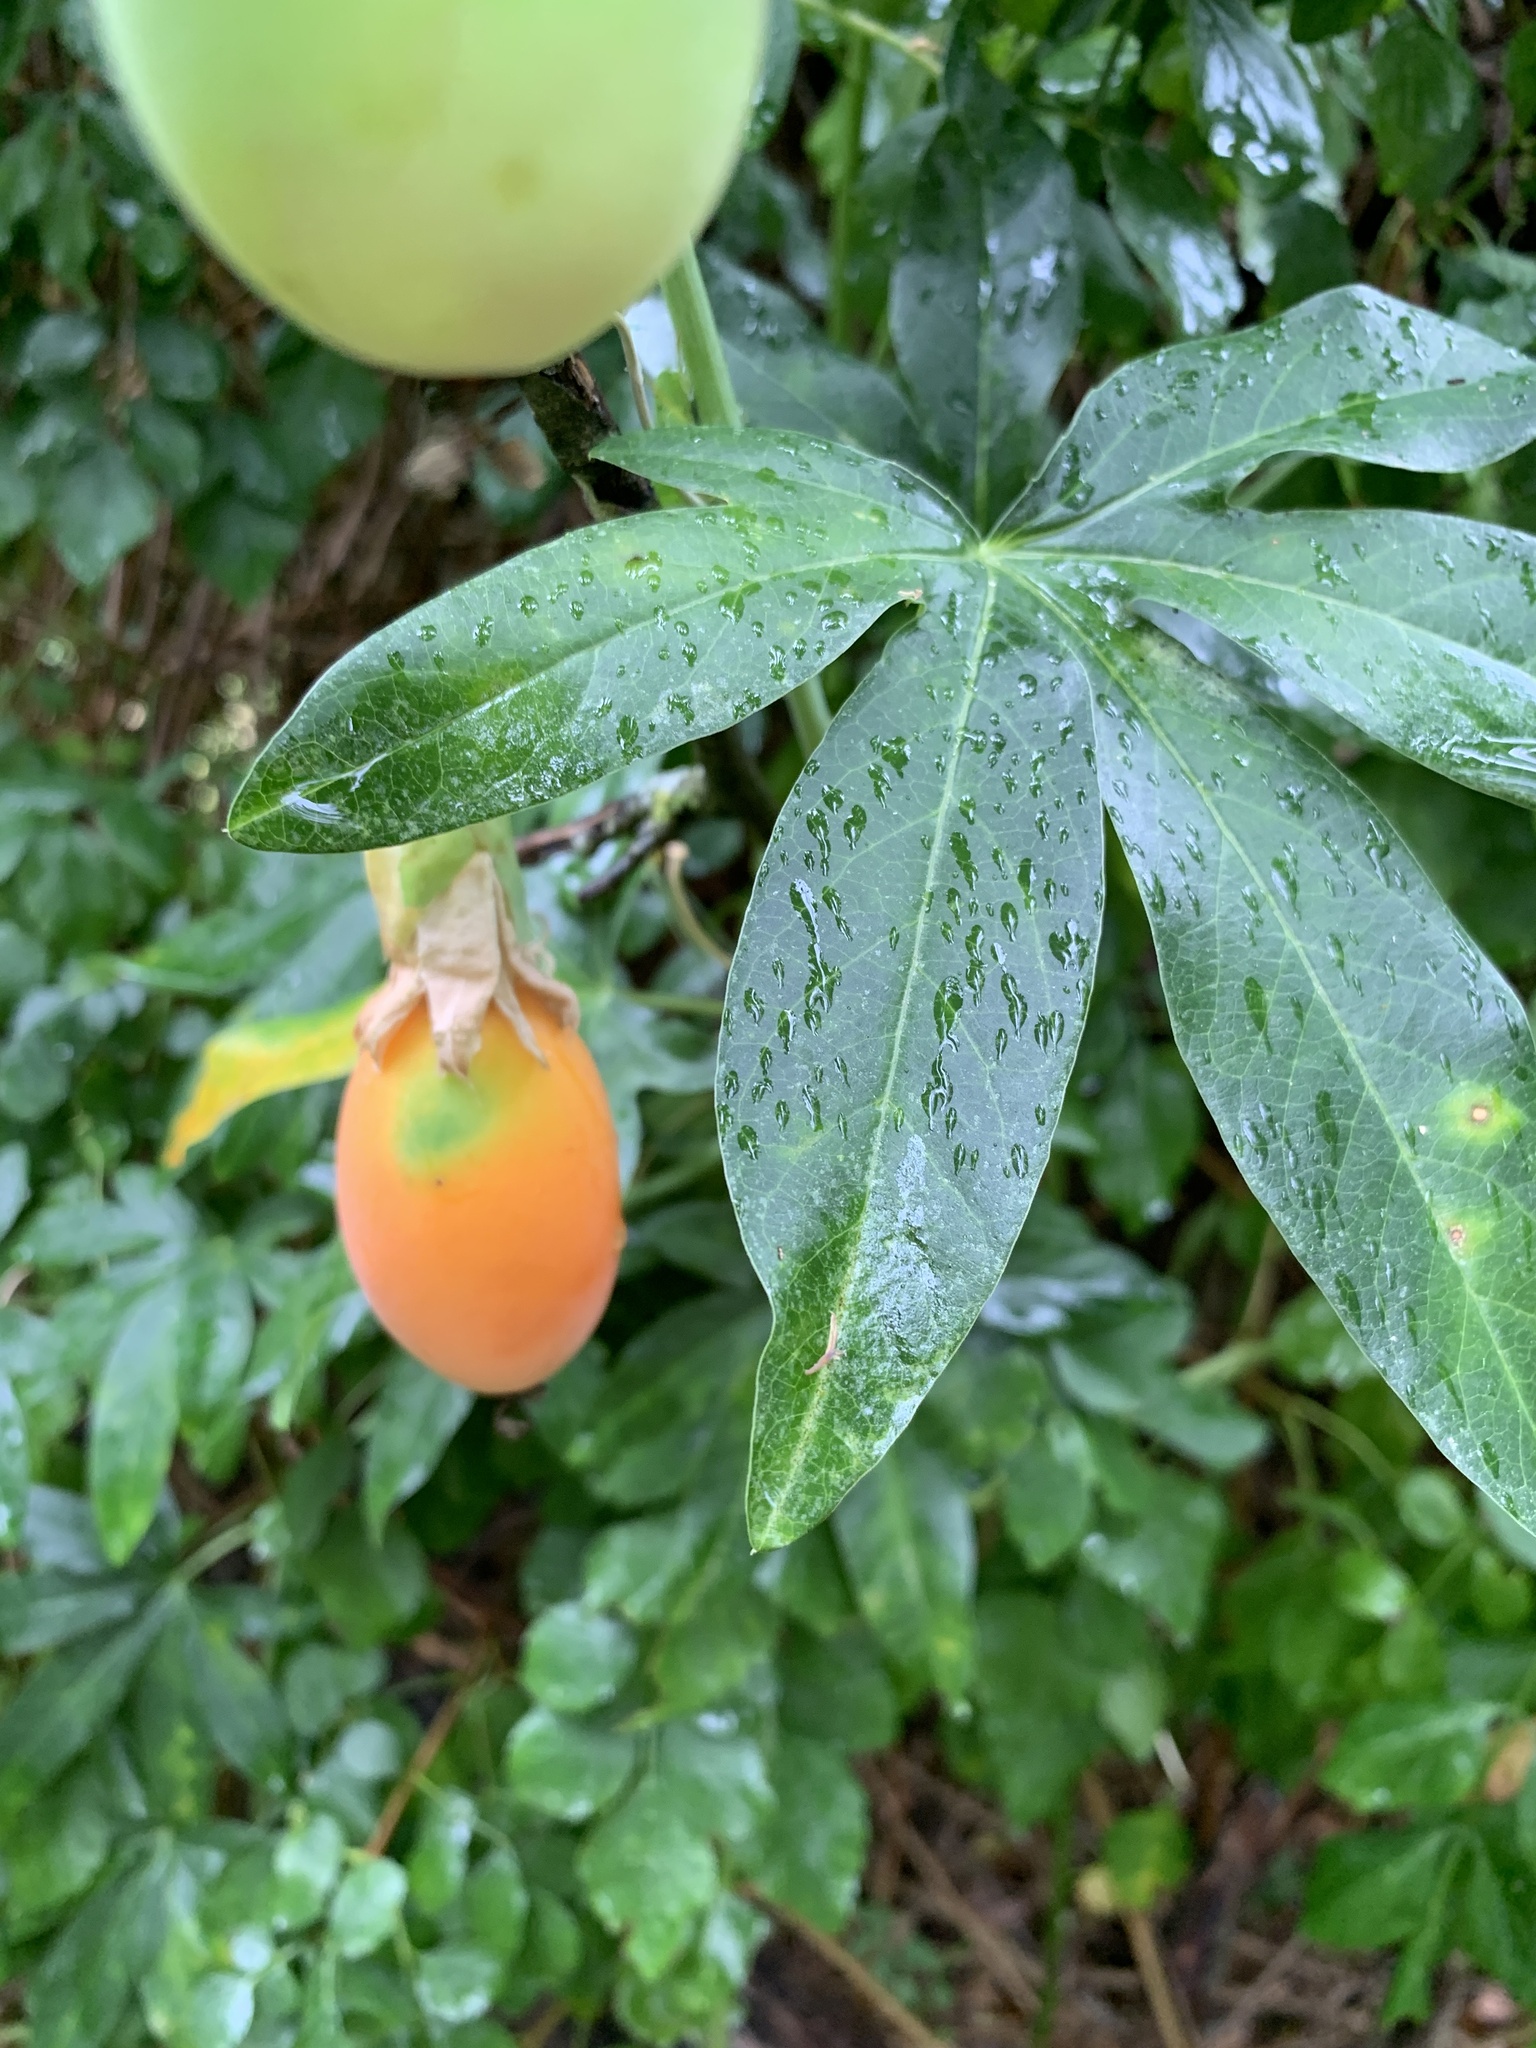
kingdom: Plantae
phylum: Tracheophyta
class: Magnoliopsida
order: Malpighiales
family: Passifloraceae
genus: Passiflora
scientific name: Passiflora caerulea
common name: Blue passionflower
